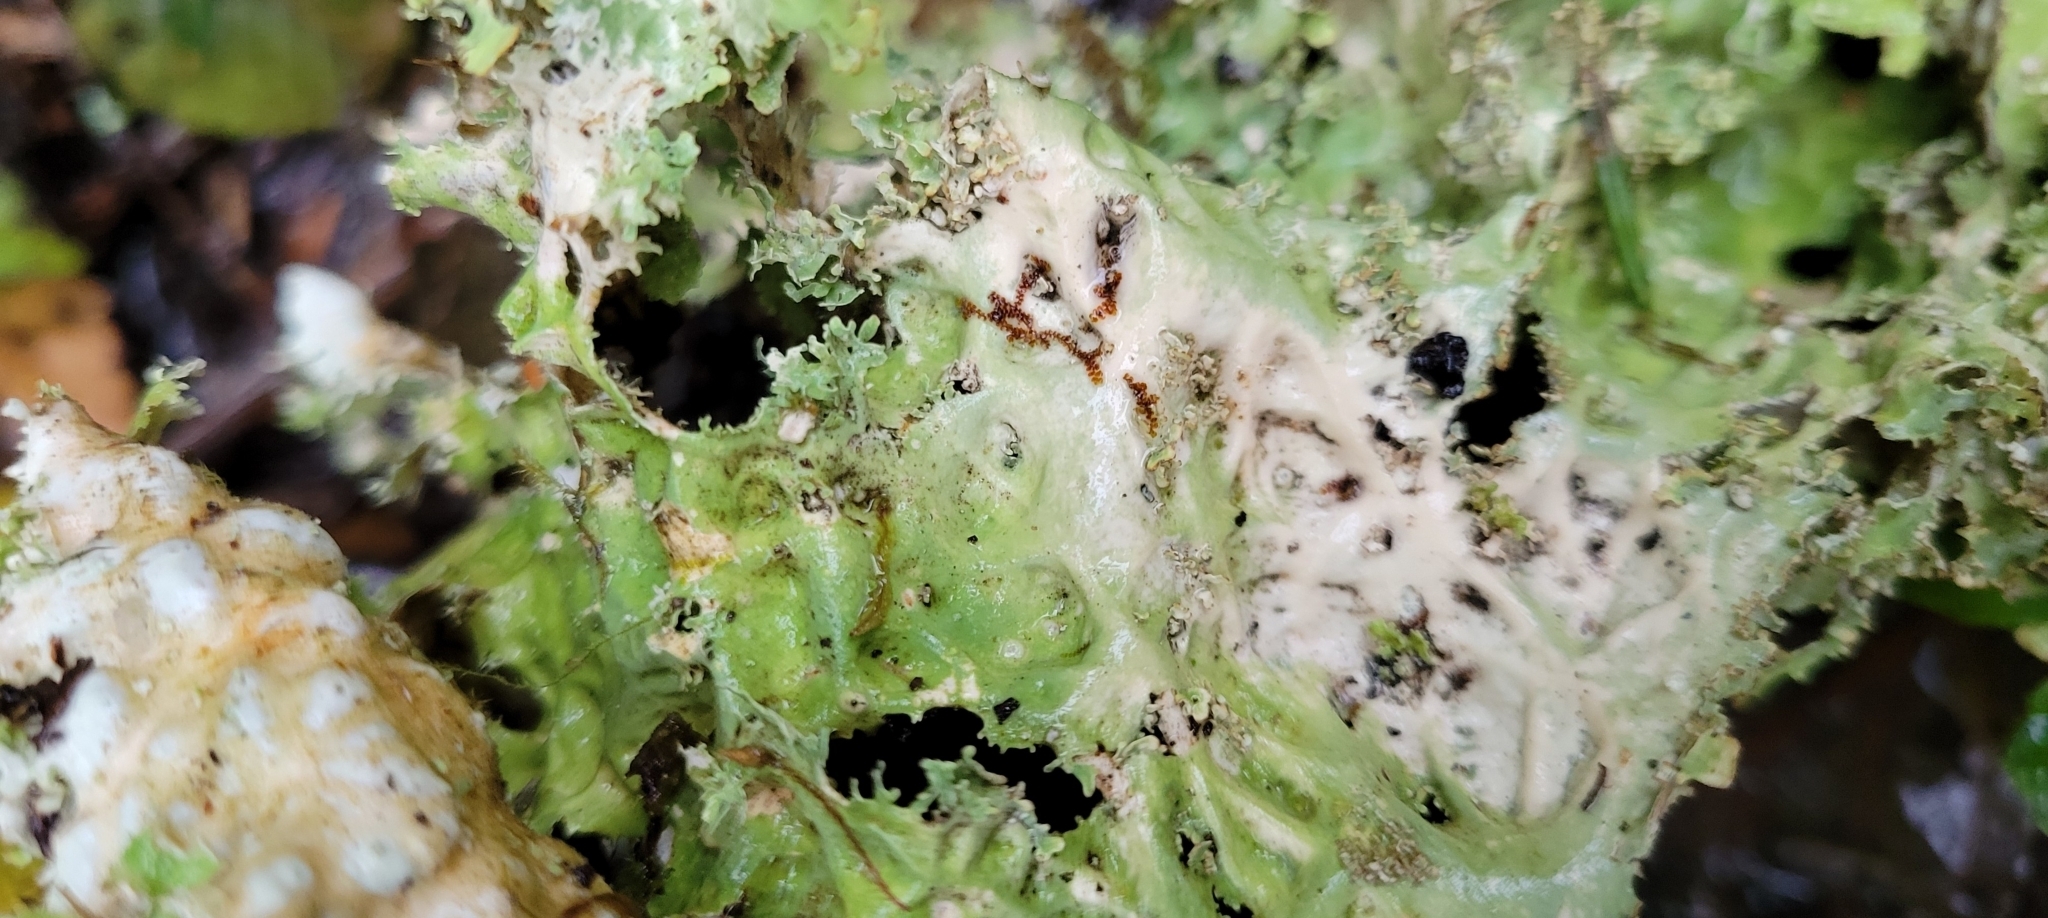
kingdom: Fungi
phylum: Ascomycota
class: Lecanoromycetes
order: Peltigerales
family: Lobariaceae
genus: Lobaria
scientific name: Lobaria oregana
